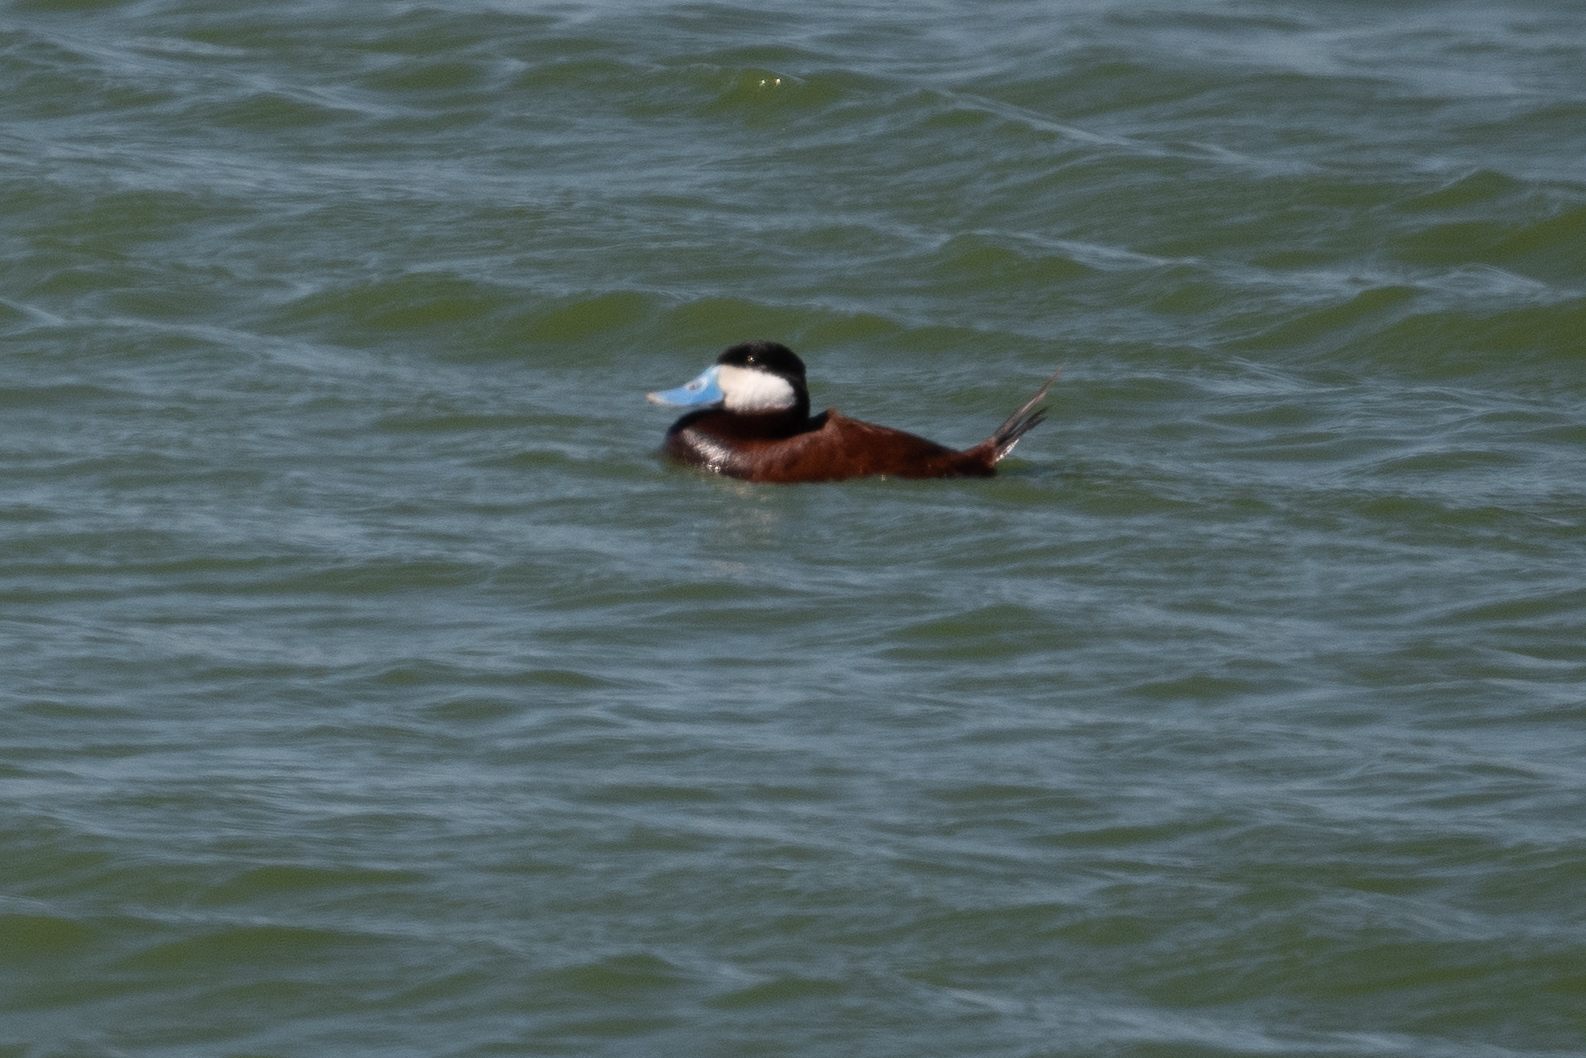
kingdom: Animalia
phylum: Chordata
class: Aves
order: Anseriformes
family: Anatidae
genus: Oxyura
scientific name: Oxyura jamaicensis
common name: Ruddy duck
